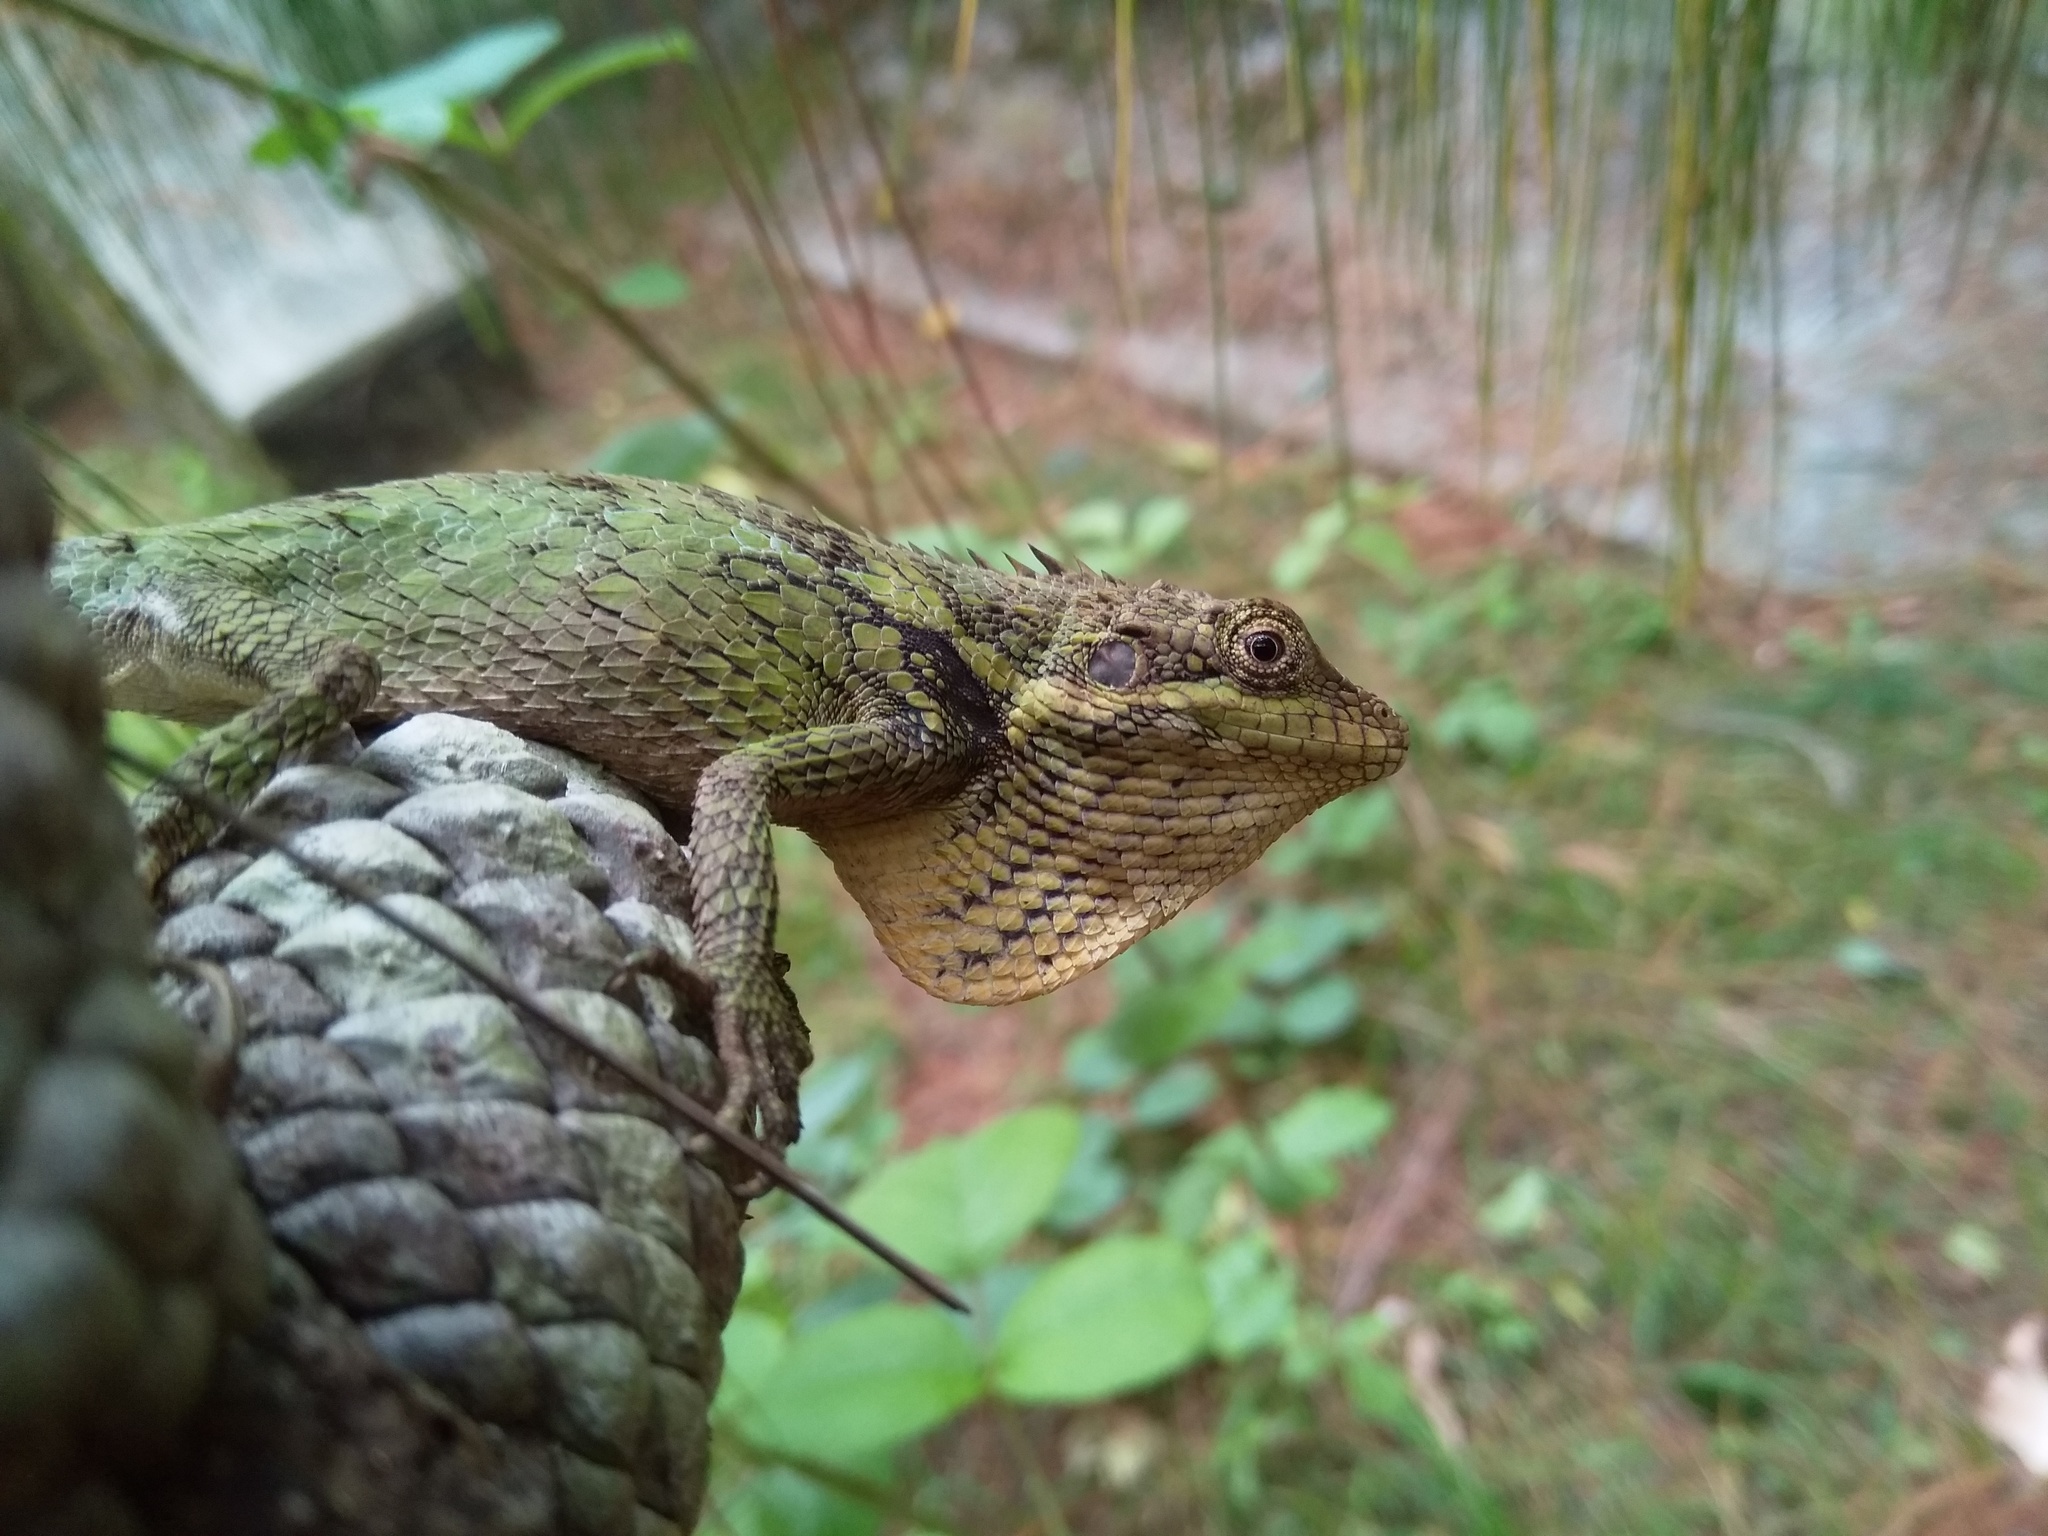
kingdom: Animalia
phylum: Chordata
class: Squamata
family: Agamidae
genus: Salea
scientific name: Salea anamallayana
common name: Anaimalai spiny lizard
